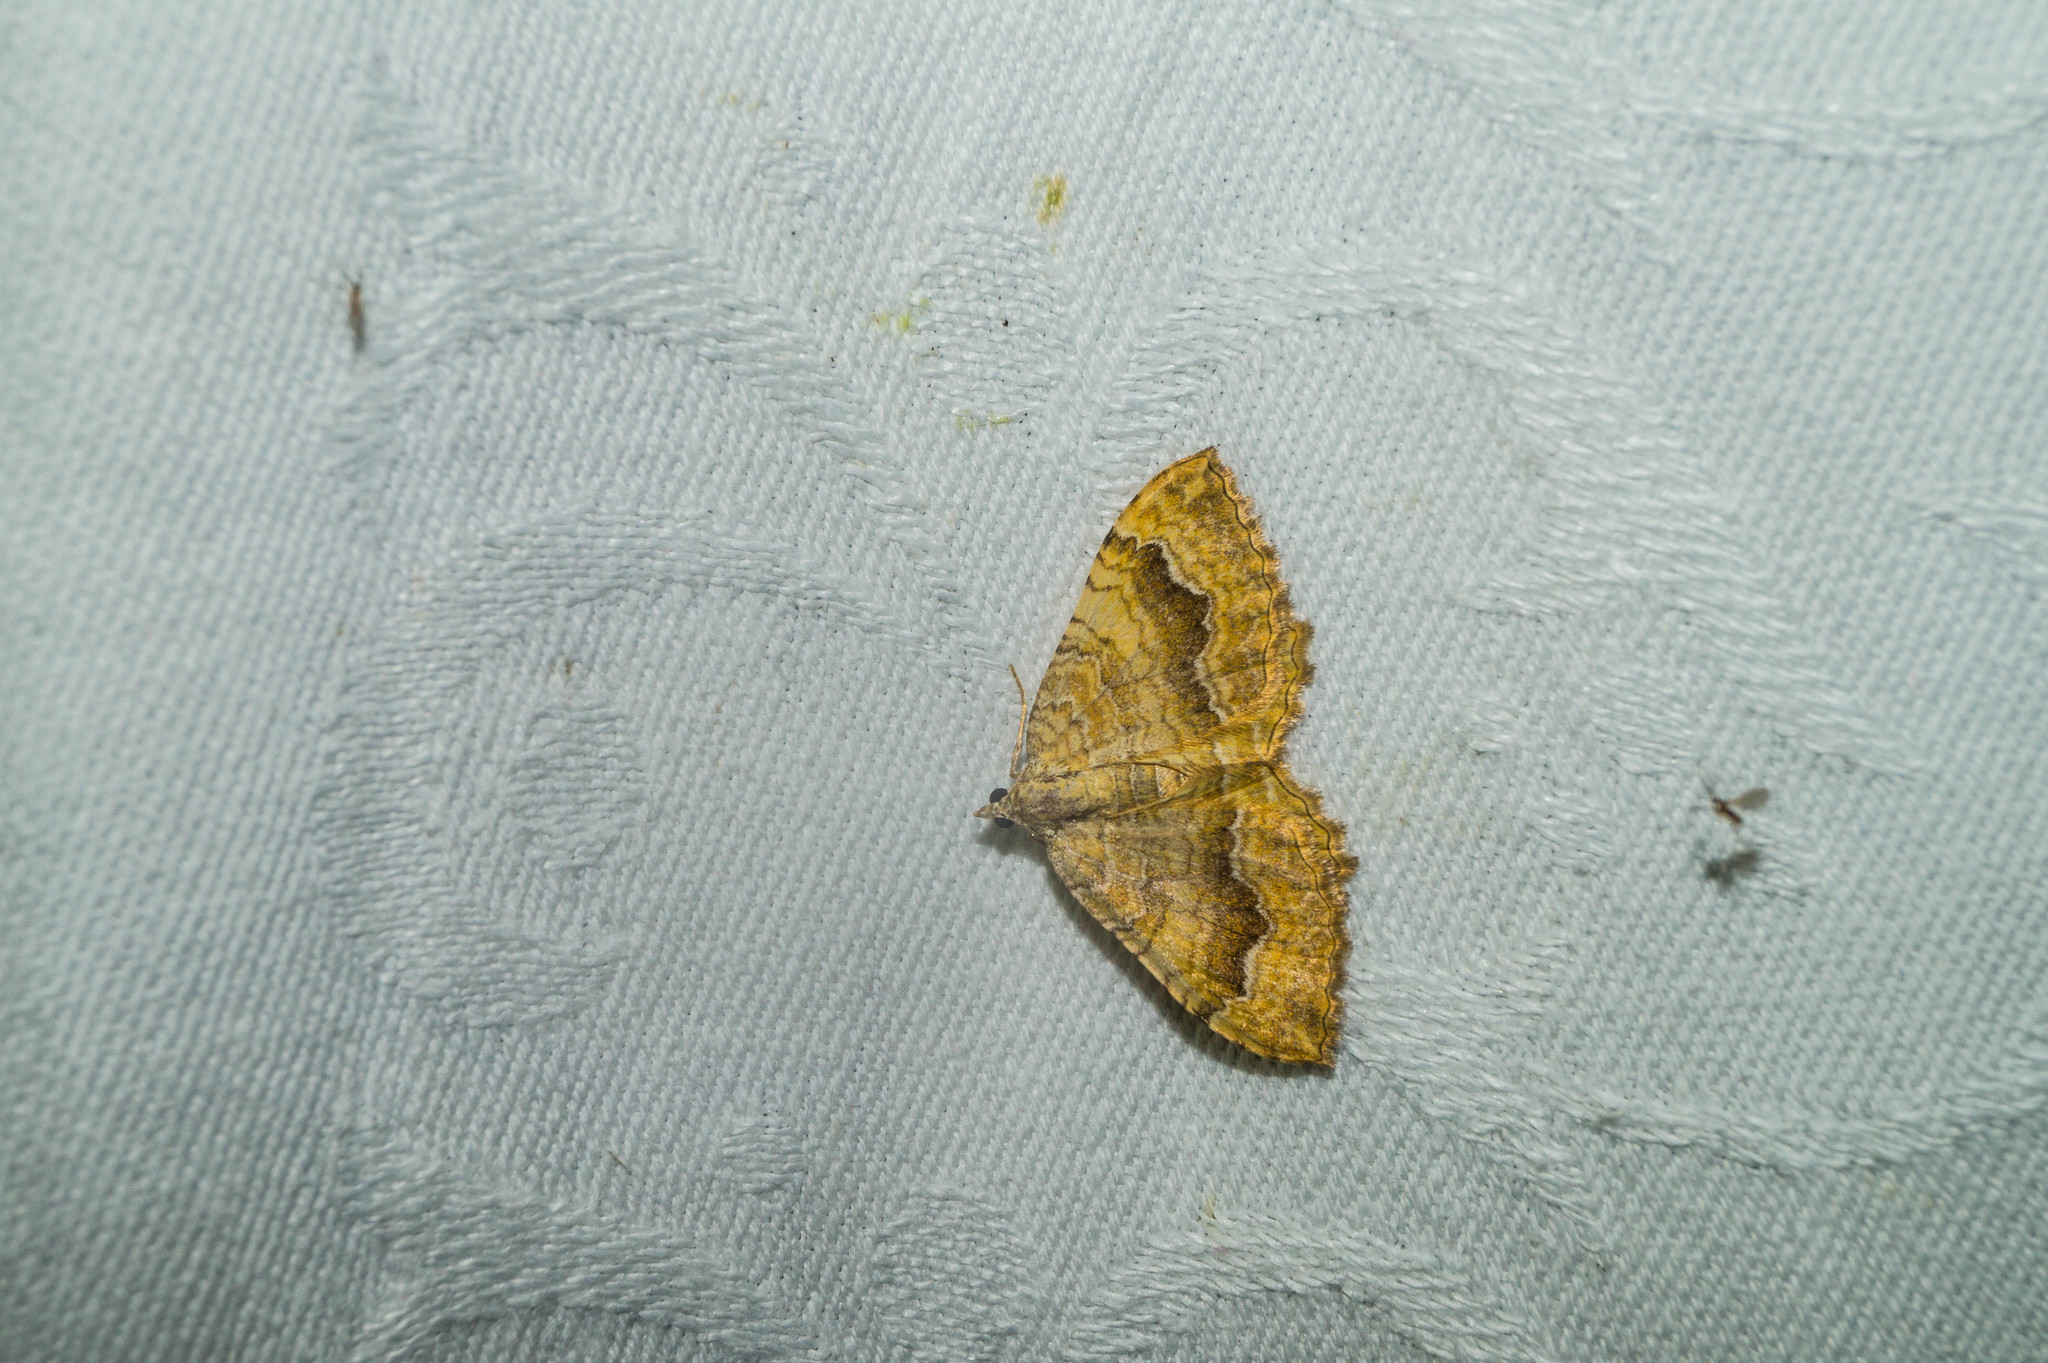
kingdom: Animalia
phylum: Arthropoda
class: Insecta
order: Lepidoptera
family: Geometridae
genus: Camptogramma
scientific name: Camptogramma bilineata
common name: Yellow shell
